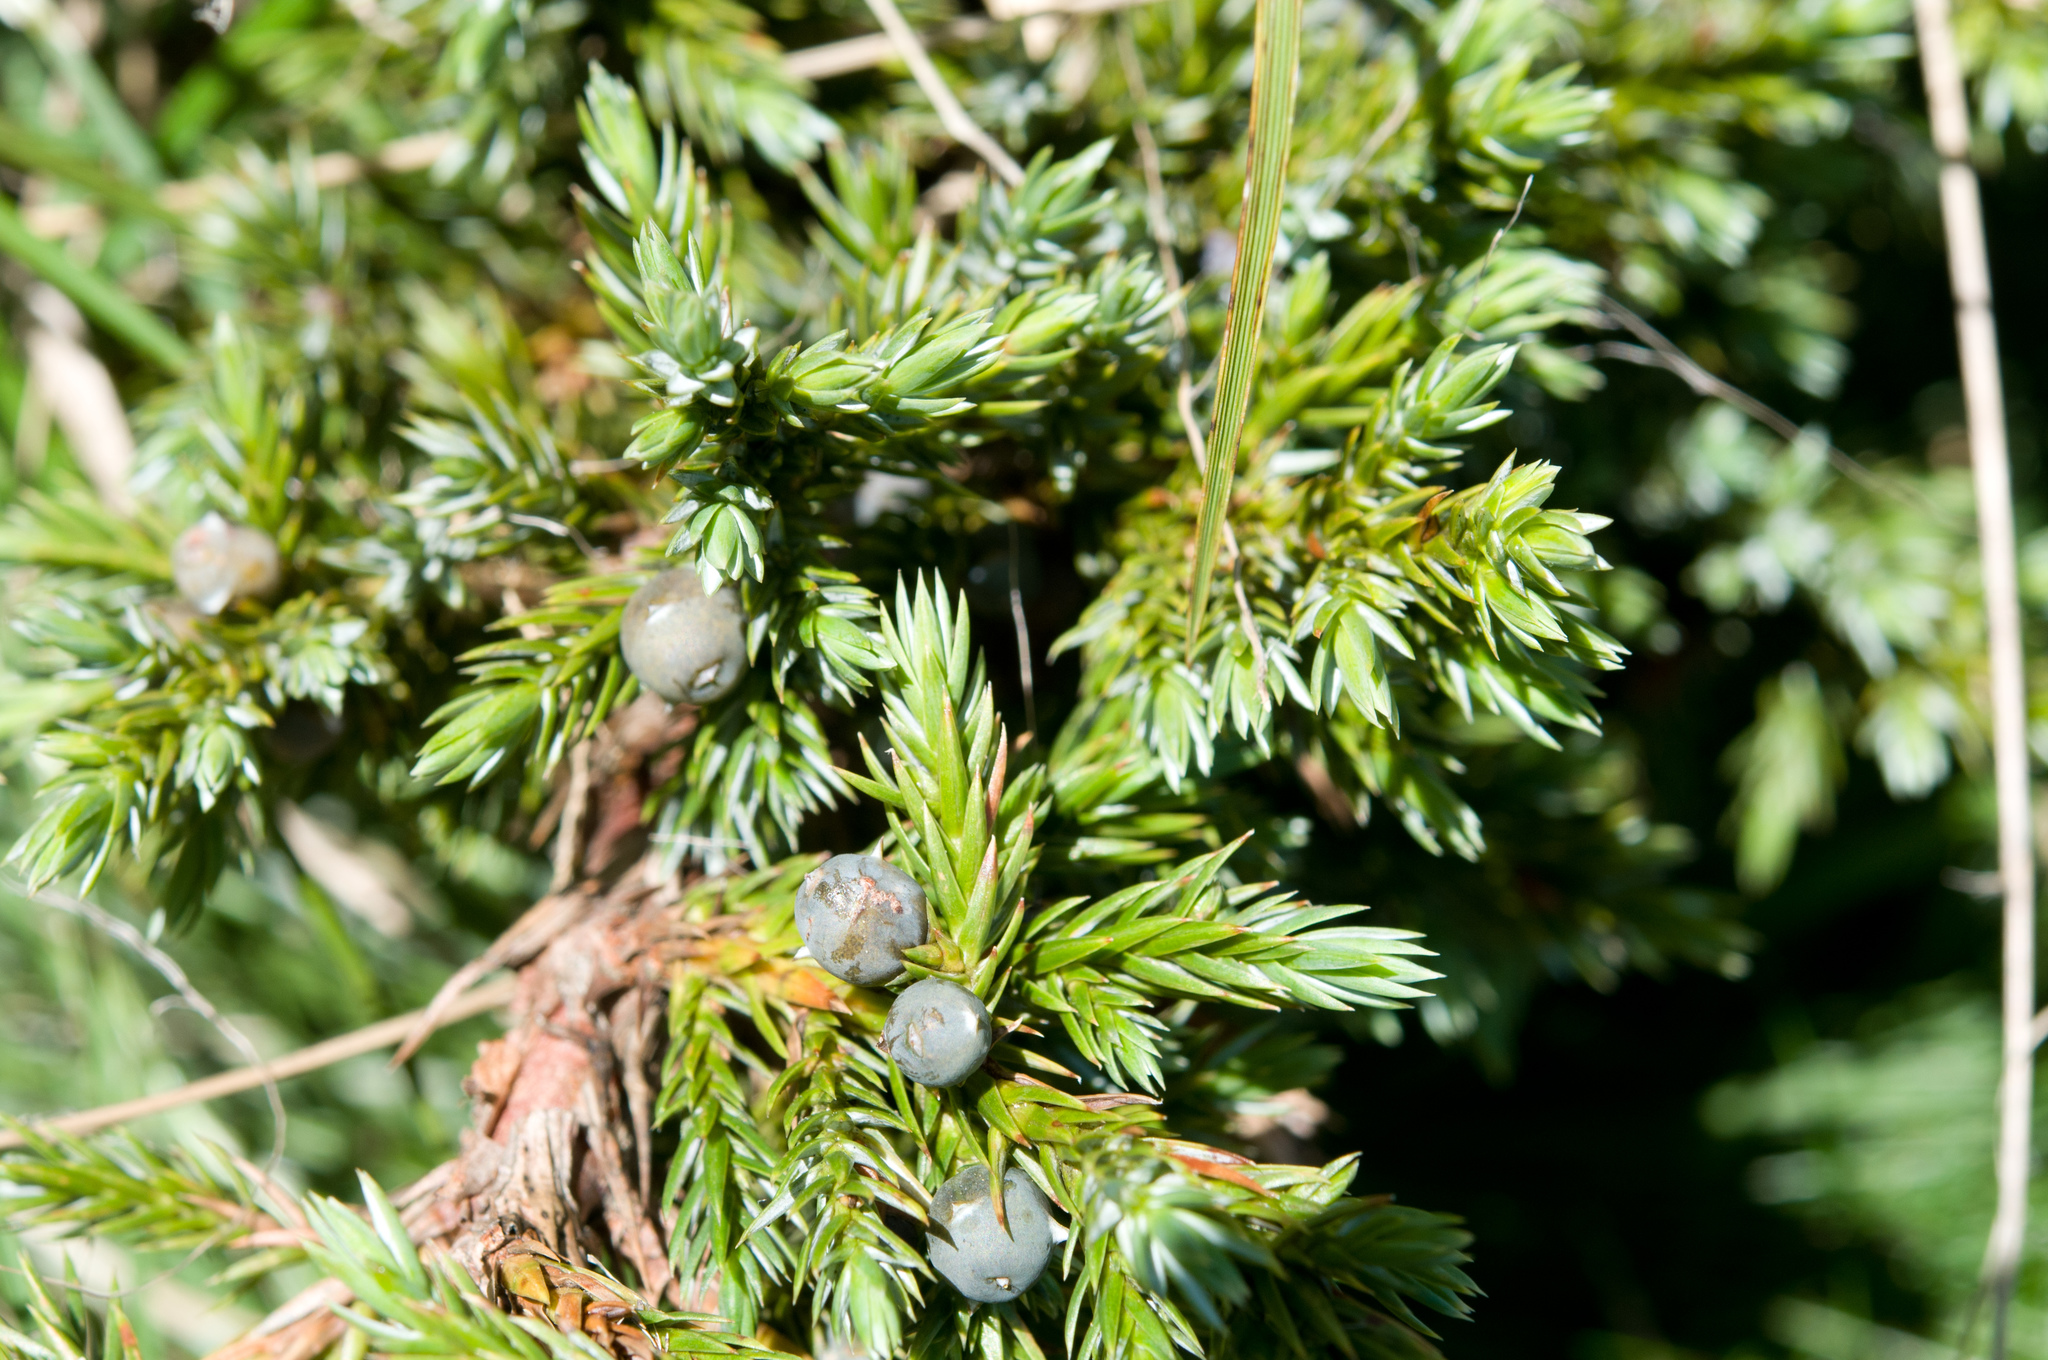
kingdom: Plantae
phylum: Tracheophyta
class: Pinopsida
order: Pinales
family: Cupressaceae
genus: Juniperus
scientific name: Juniperus squamata
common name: Flaky juniper
